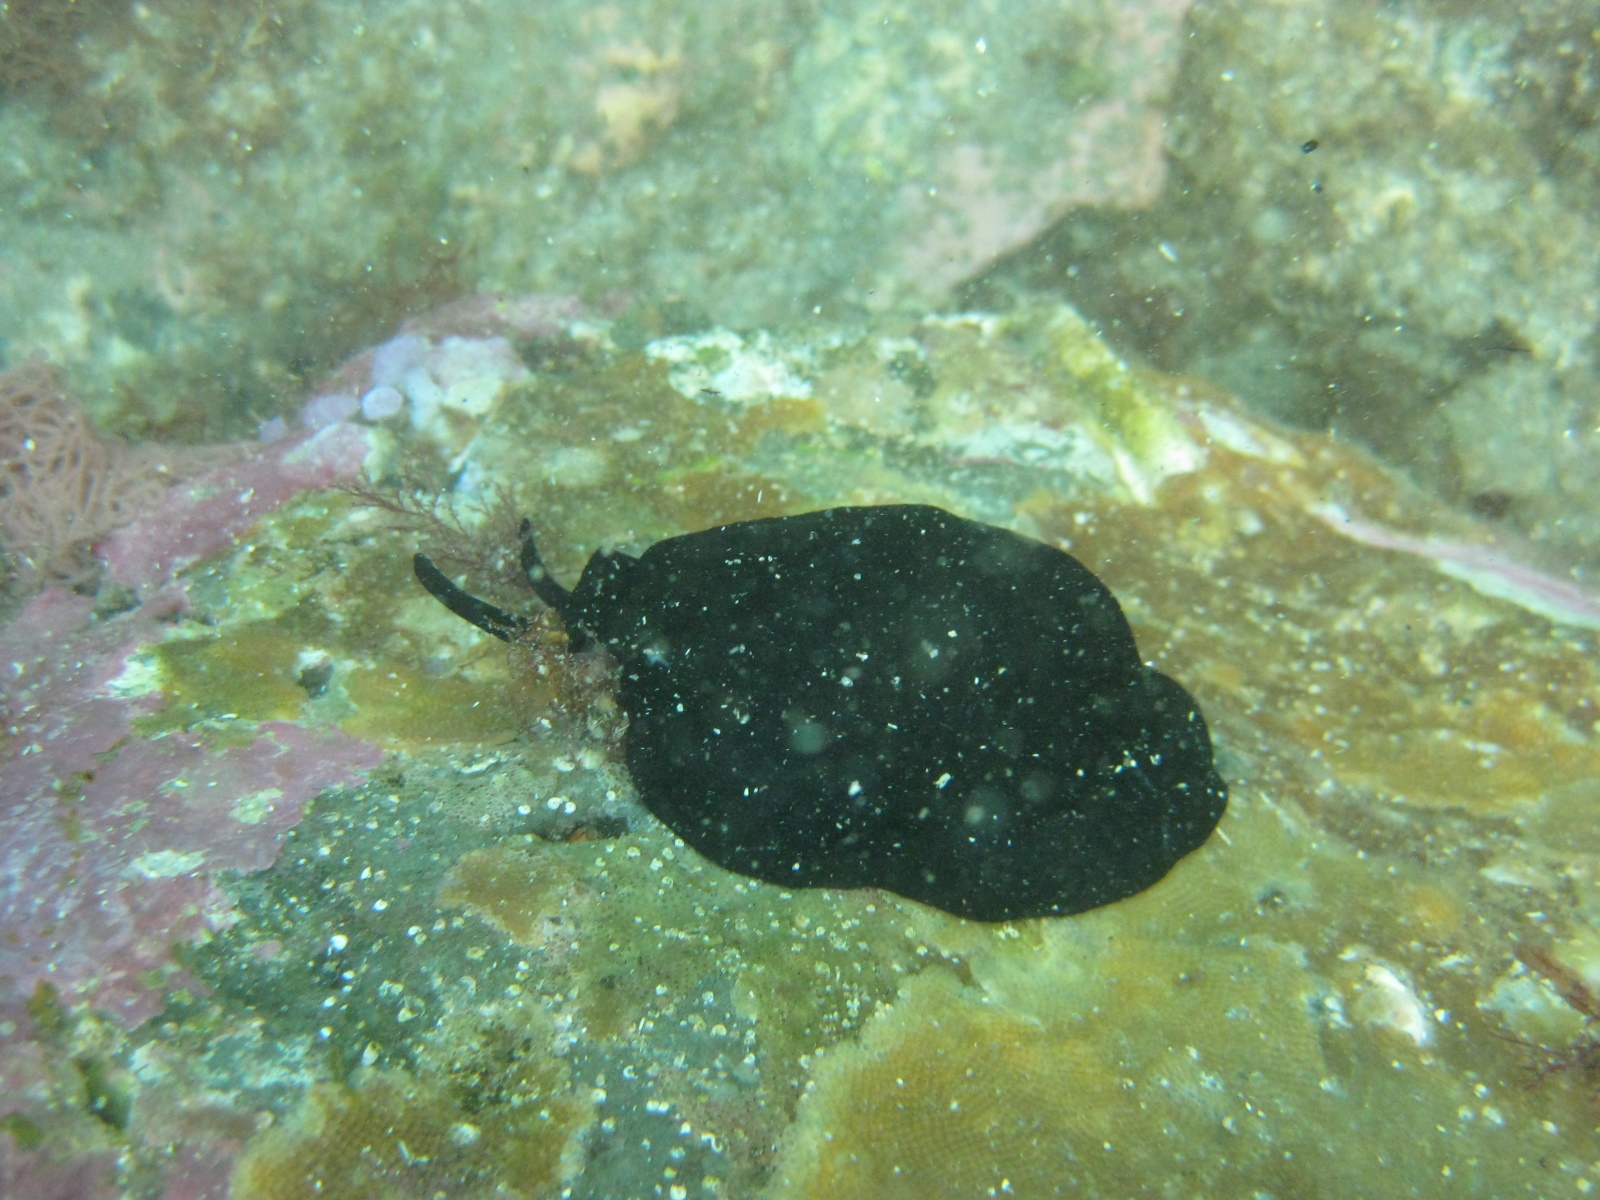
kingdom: Animalia
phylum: Mollusca
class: Gastropoda
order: Lepetellida
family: Fissurellidae
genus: Scutus
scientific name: Scutus breviculus
